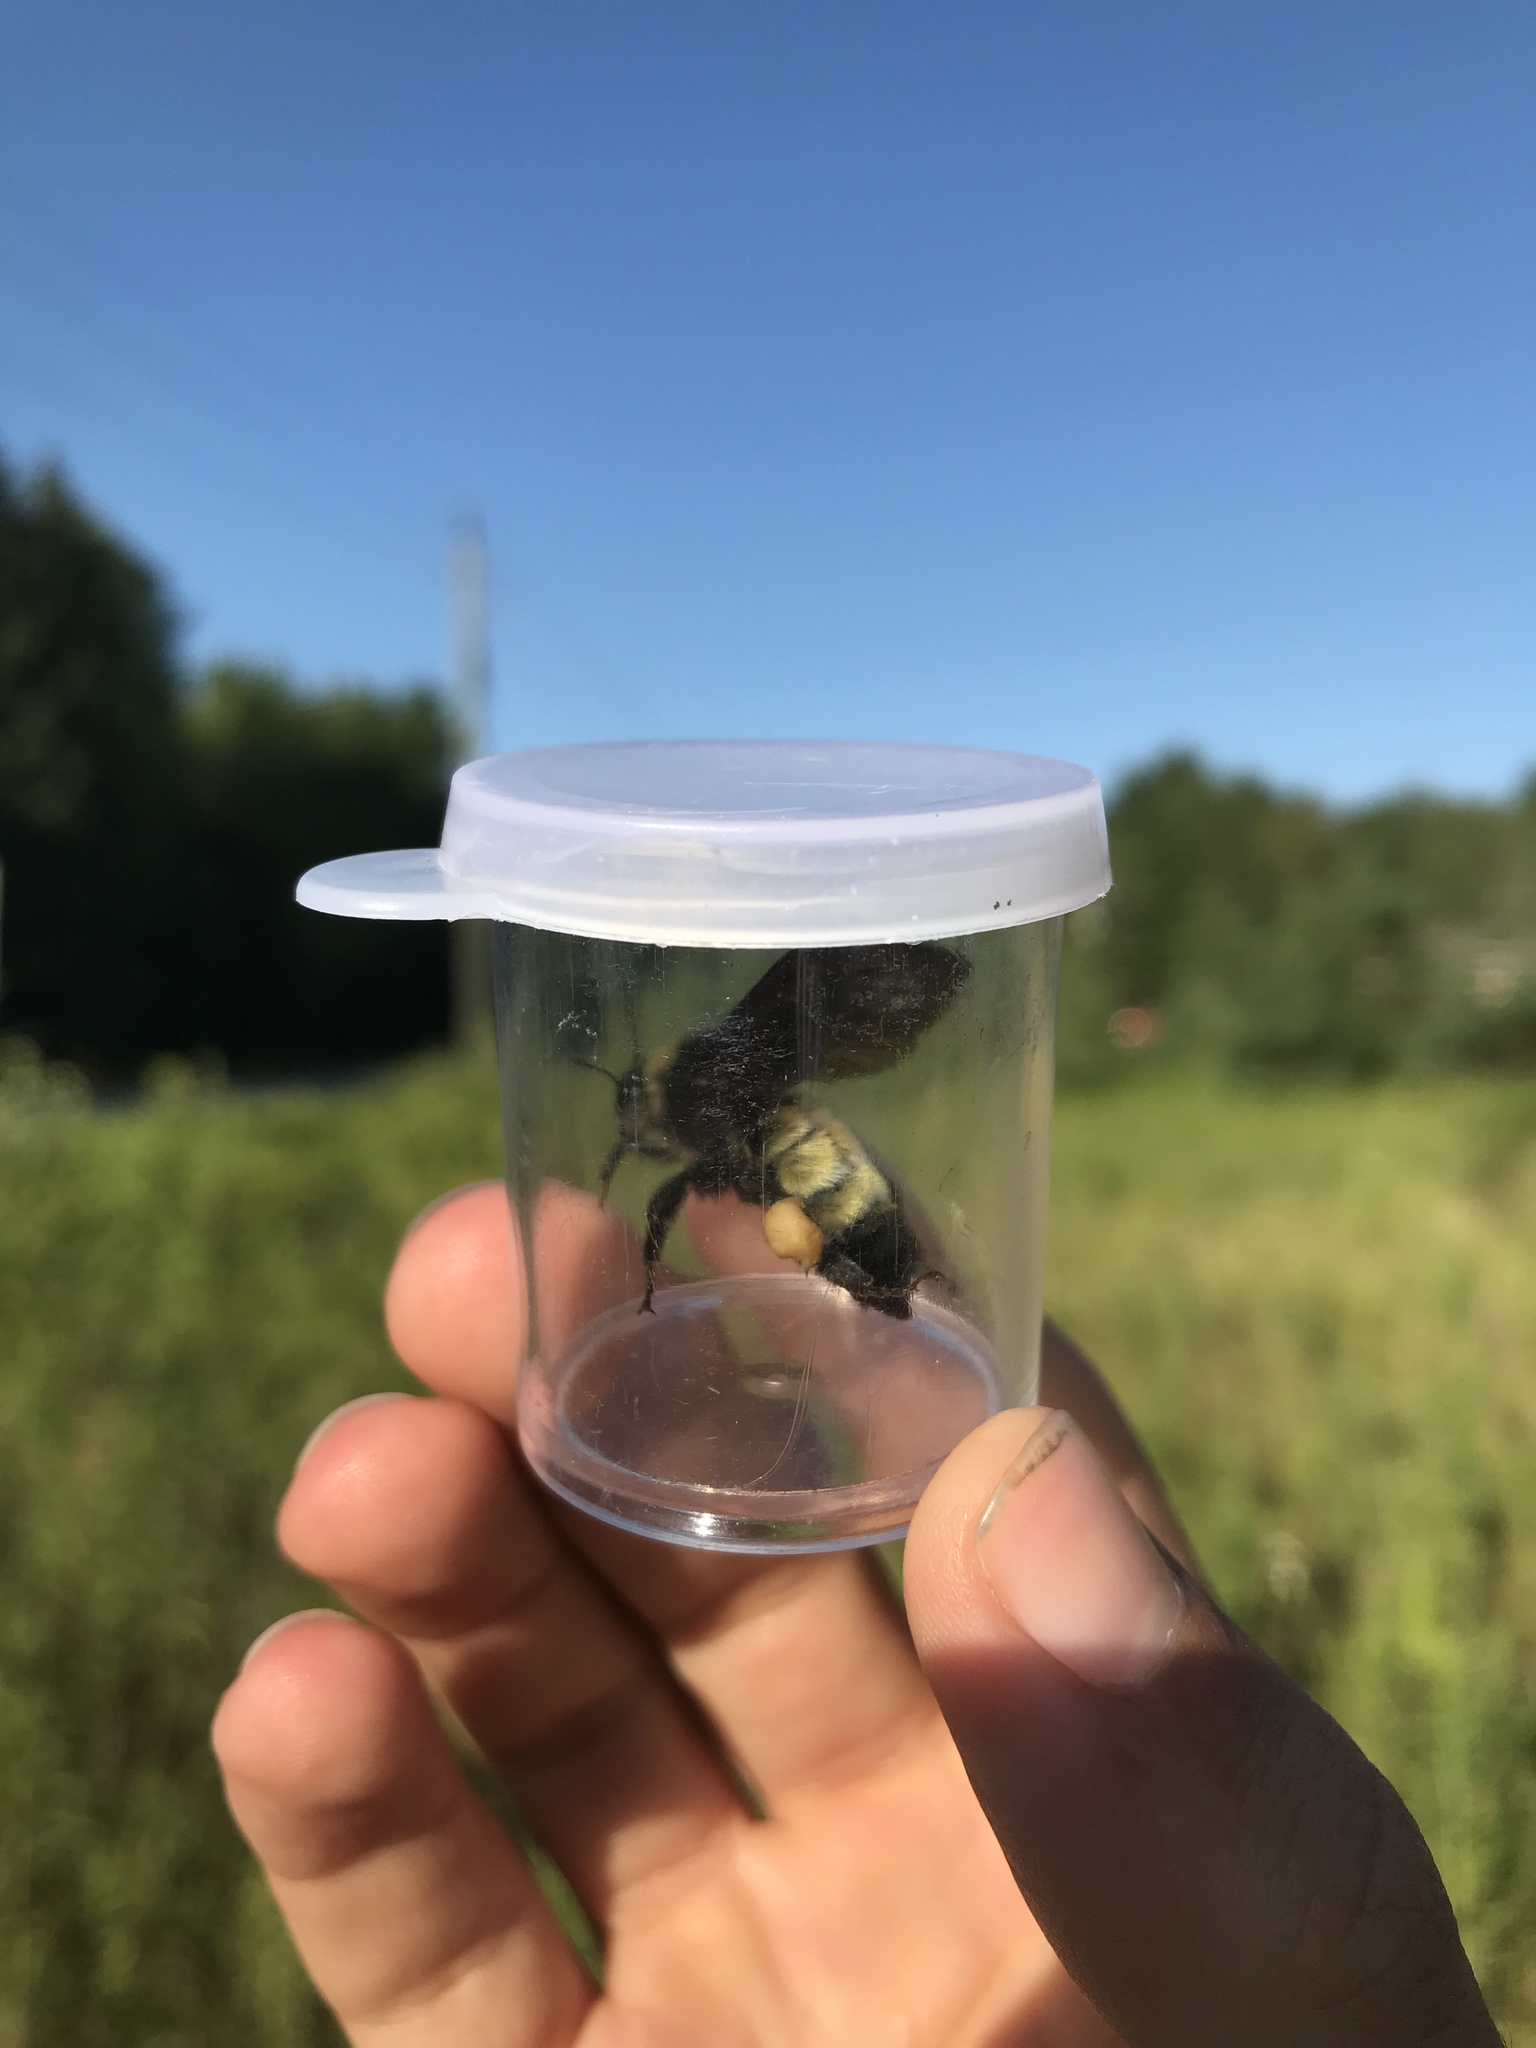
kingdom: Animalia
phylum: Arthropoda
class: Insecta
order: Hymenoptera
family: Apidae
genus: Bombus
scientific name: Bombus pensylvanicus
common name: Bumble bee
